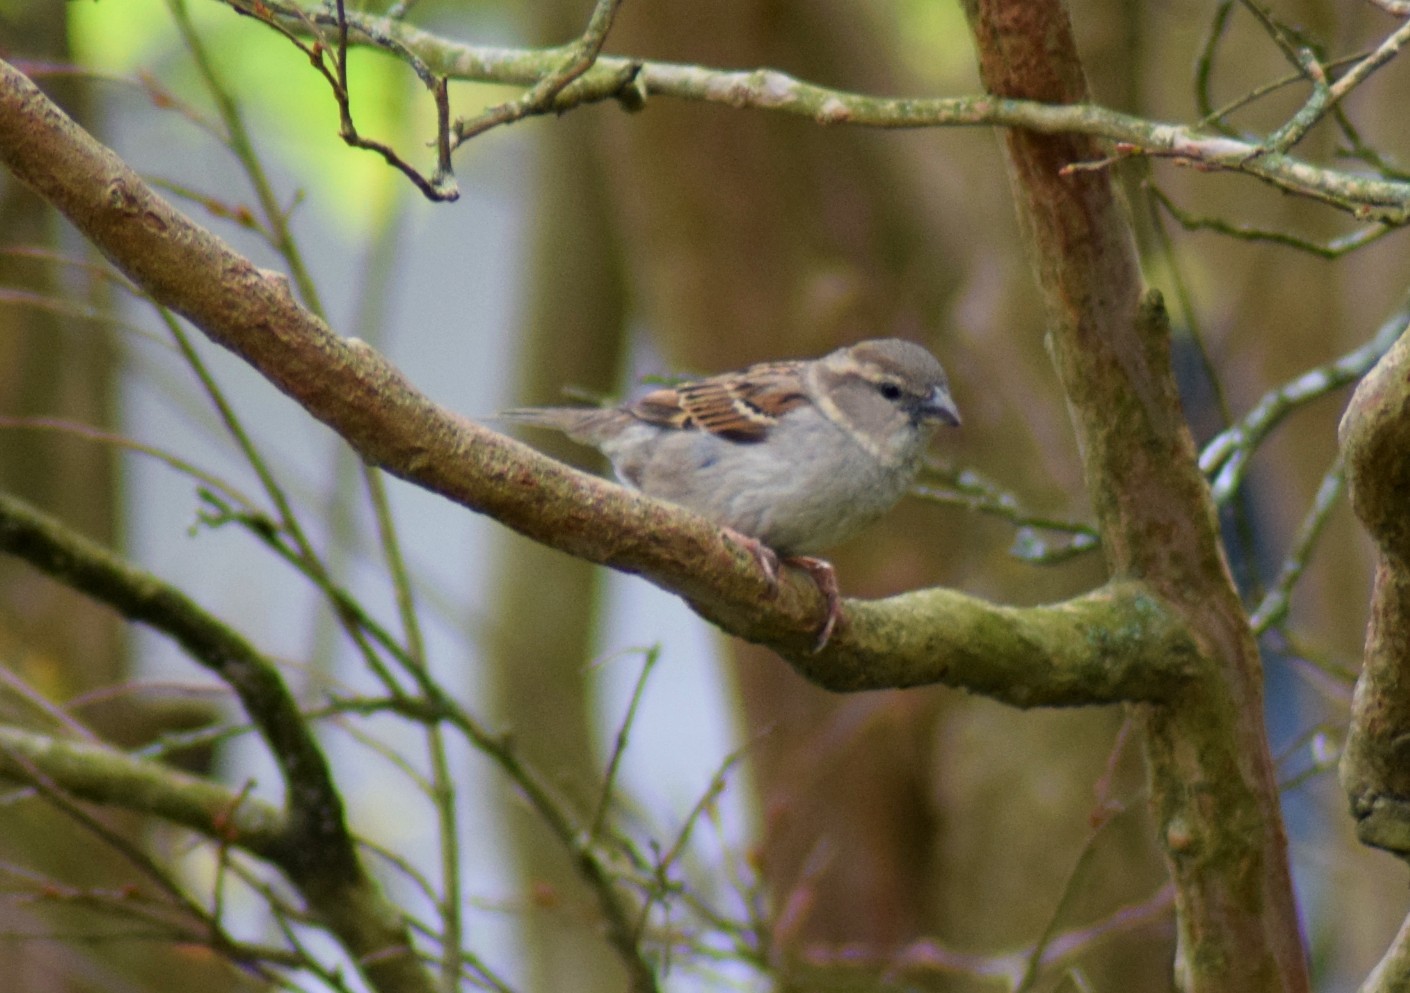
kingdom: Animalia
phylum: Chordata
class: Aves
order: Passeriformes
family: Passeridae
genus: Passer
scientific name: Passer domesticus
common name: House sparrow
